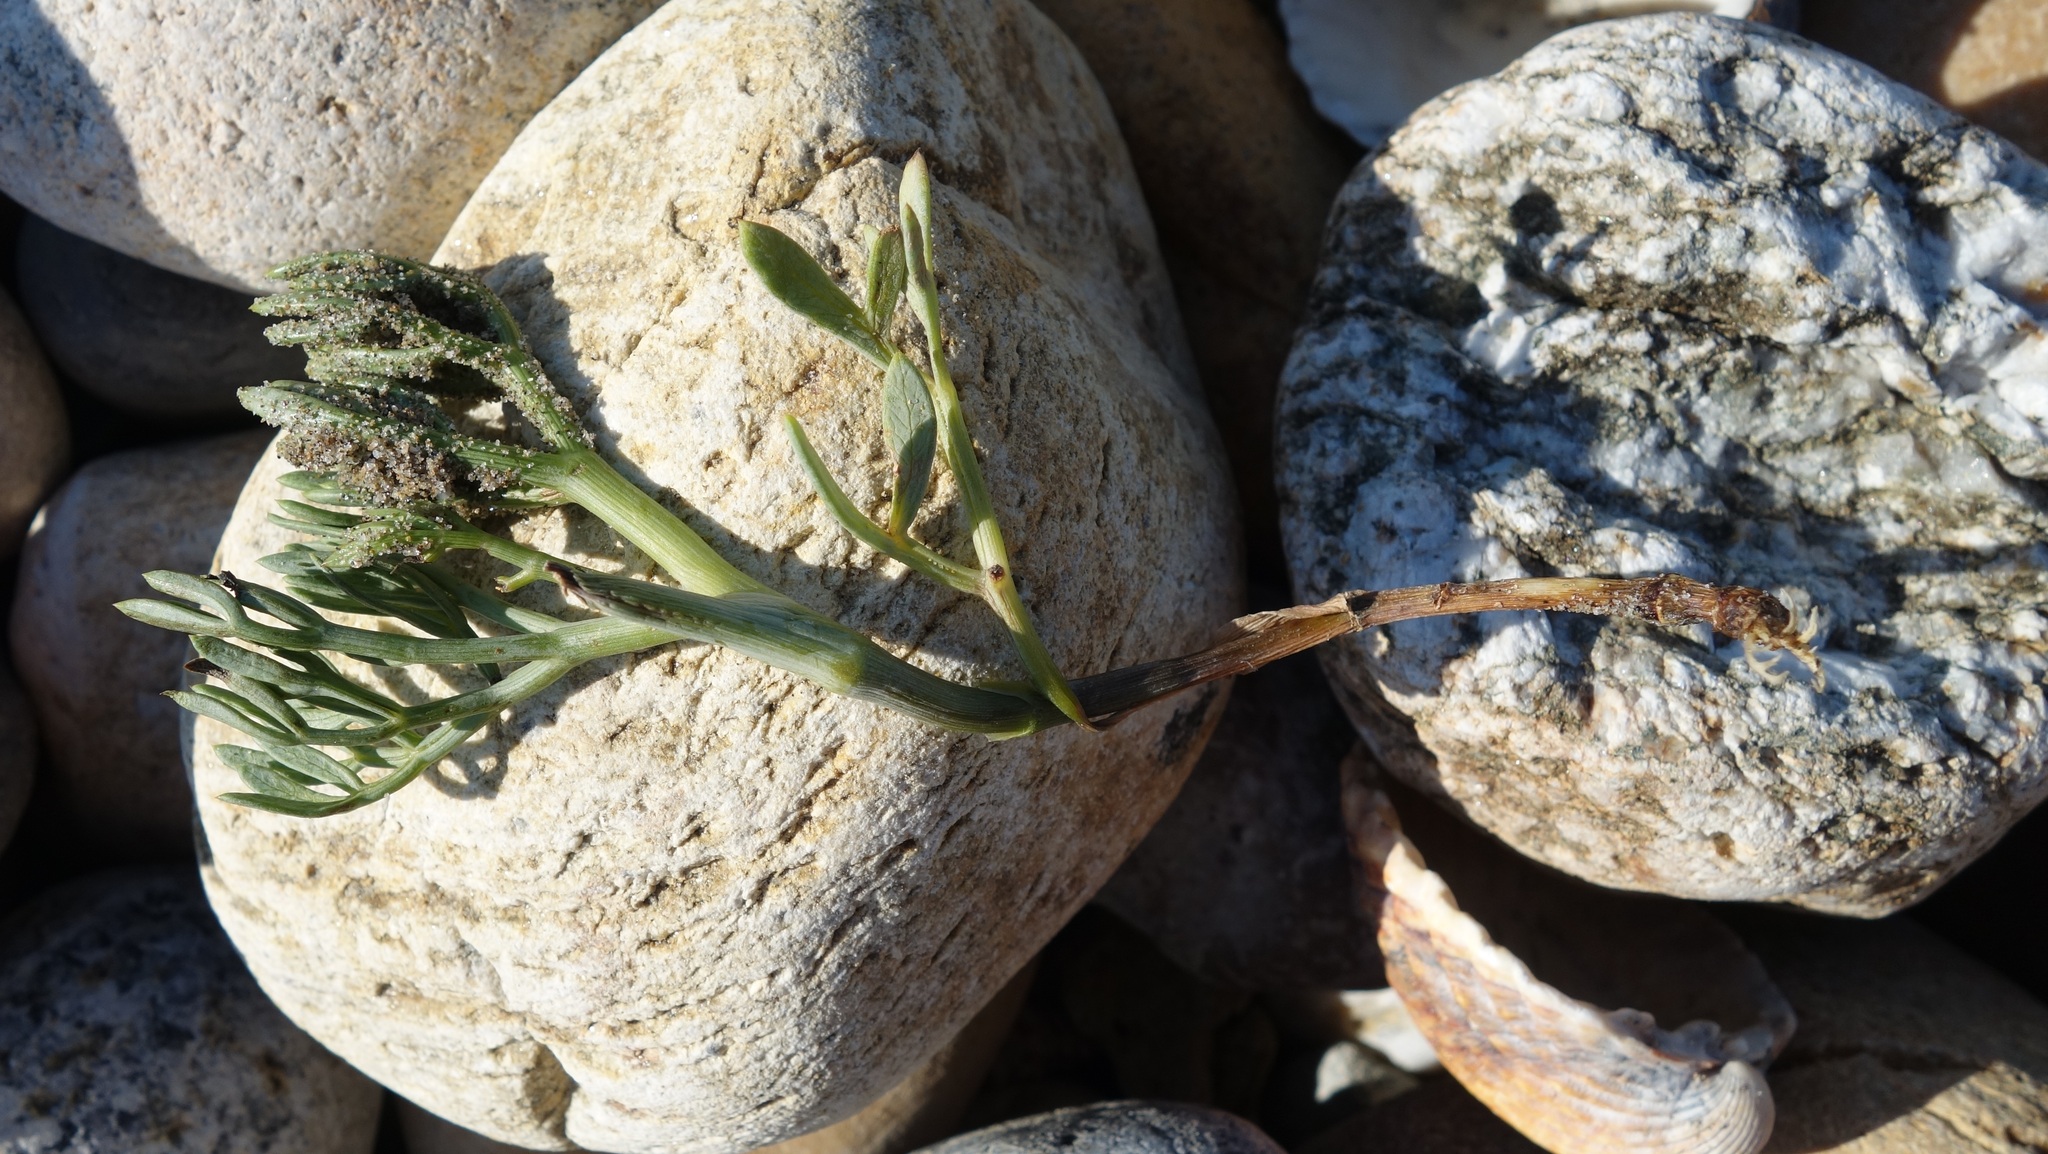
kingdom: Plantae
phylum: Tracheophyta
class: Magnoliopsida
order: Apiales
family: Apiaceae
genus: Crithmum
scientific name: Crithmum maritimum
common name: Rock samphire
